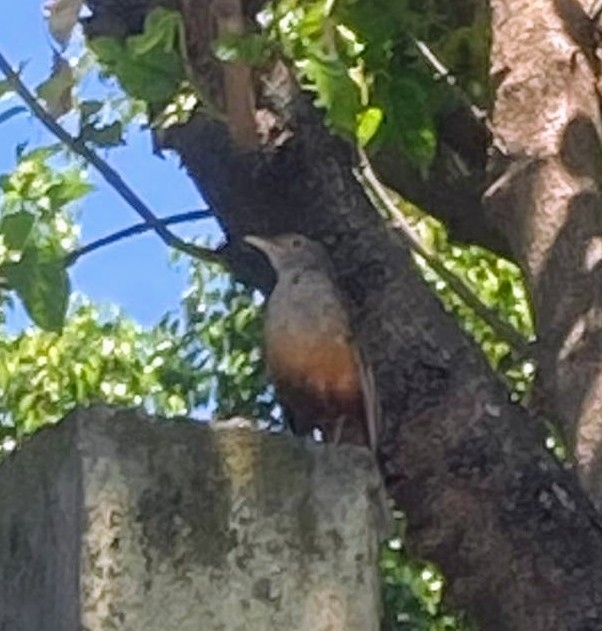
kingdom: Animalia
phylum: Chordata
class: Aves
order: Passeriformes
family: Turdidae
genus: Turdus
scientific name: Turdus rufiventris
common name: Rufous-bellied thrush
